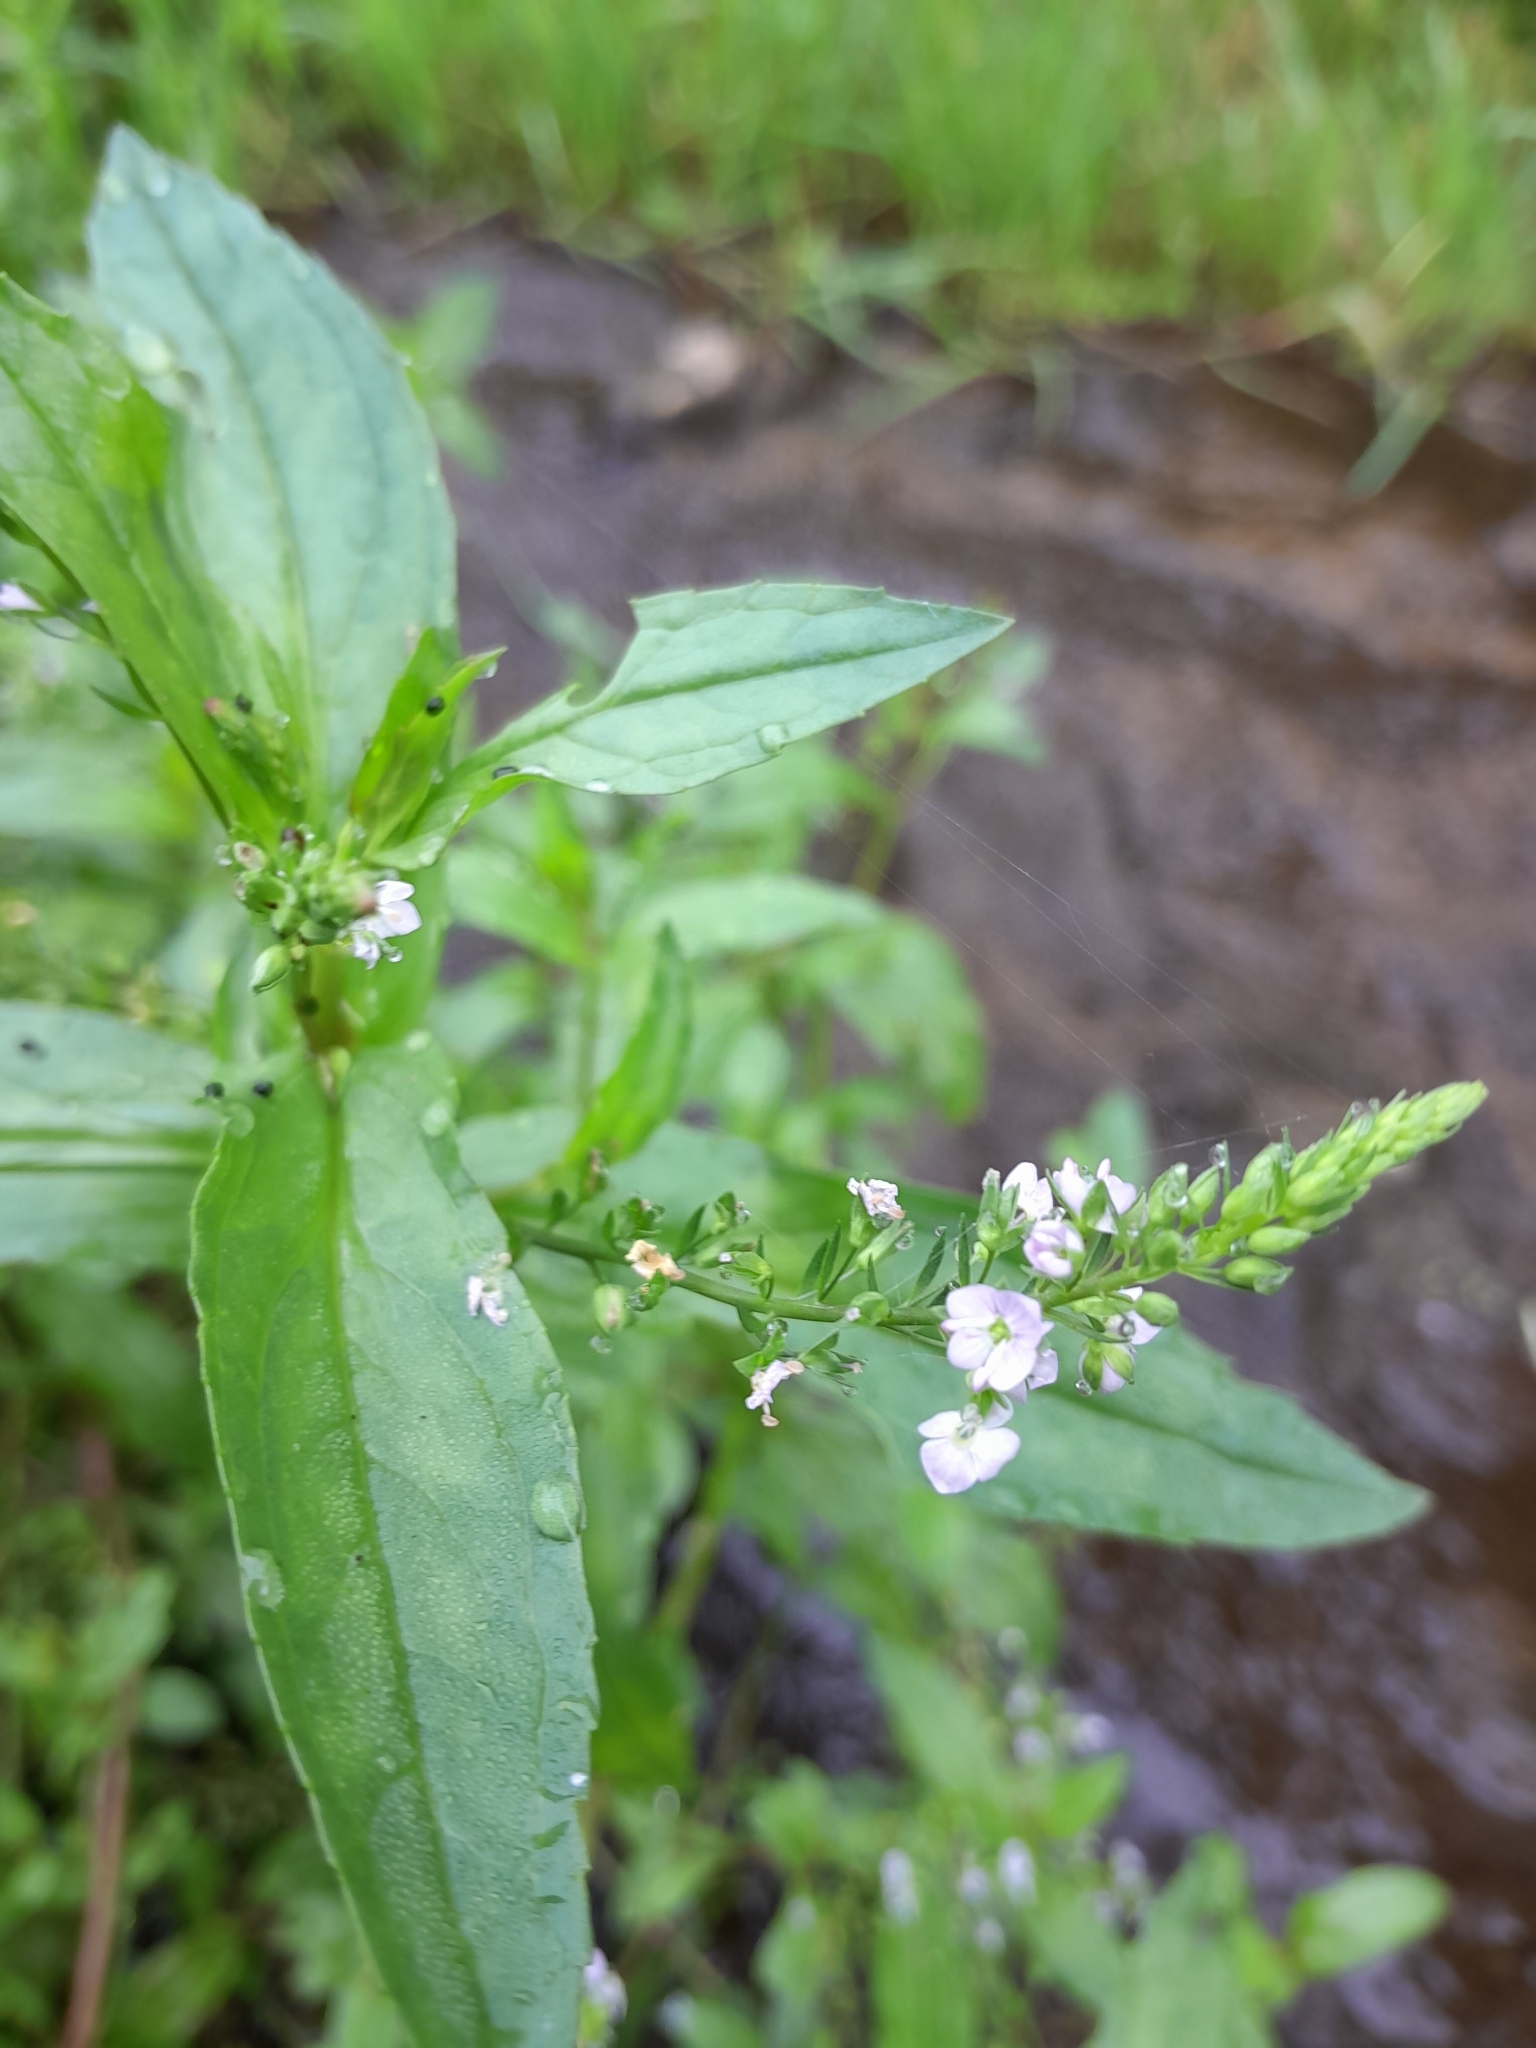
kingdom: Plantae
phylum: Tracheophyta
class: Magnoliopsida
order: Lamiales
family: Plantaginaceae
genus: Veronica
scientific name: Veronica anagallis-aquatica
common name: Water speedwell
